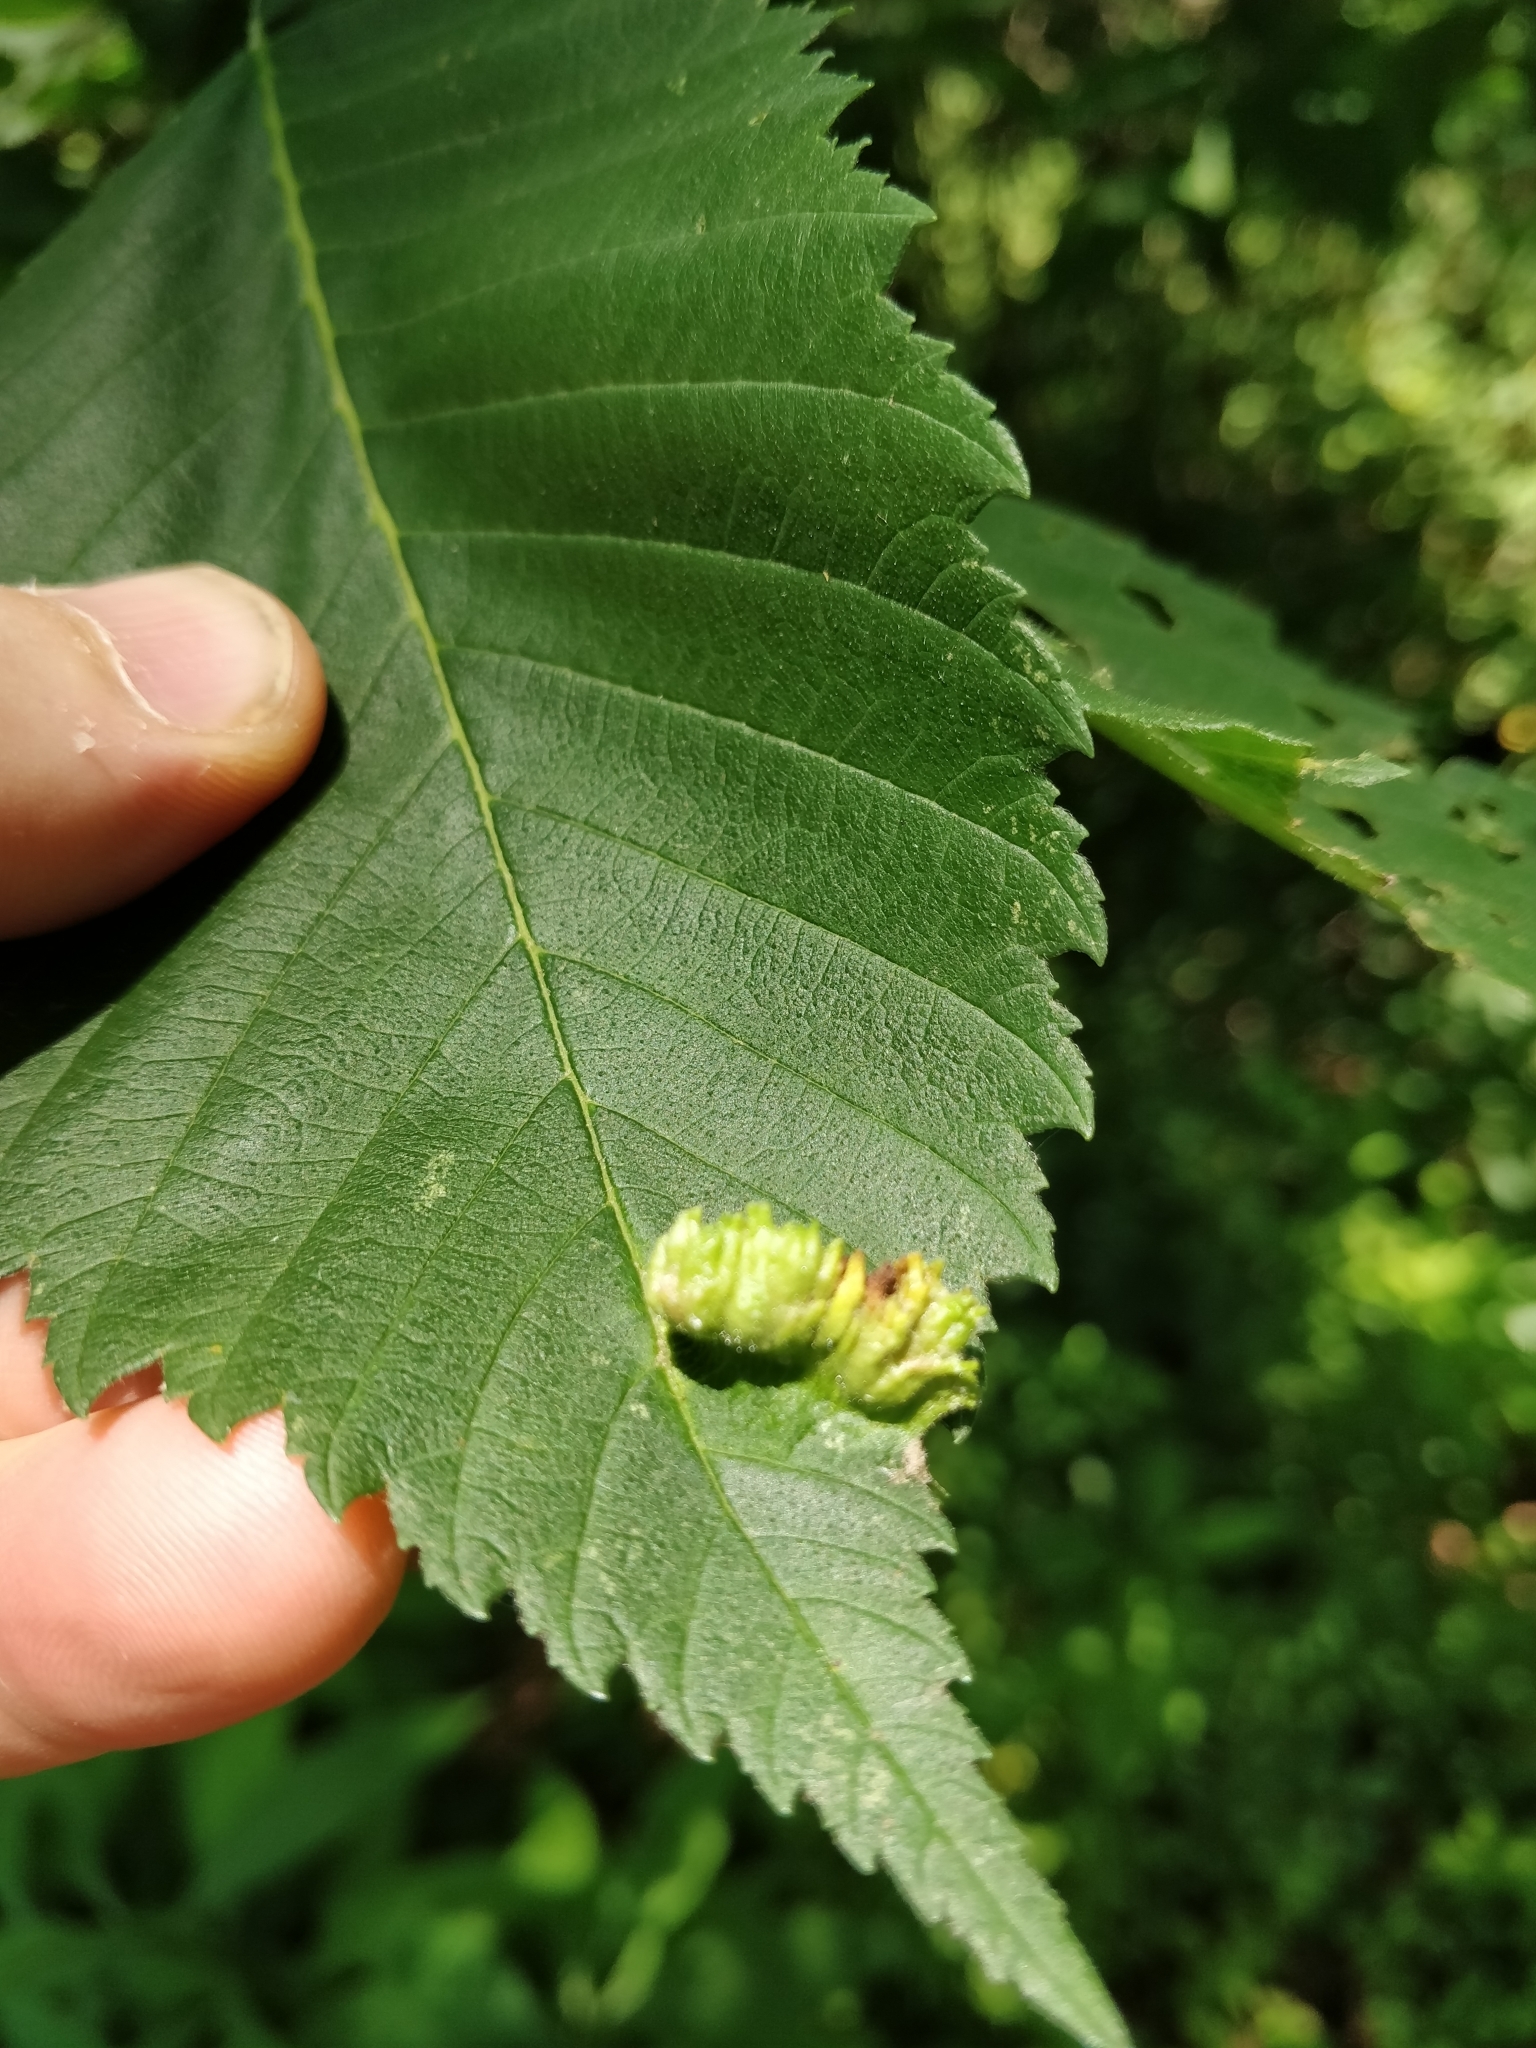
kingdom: Animalia
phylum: Arthropoda
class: Insecta
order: Hemiptera
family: Aphididae
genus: Colopha
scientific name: Colopha ulmicola
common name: Elm cockscombgall aphid
